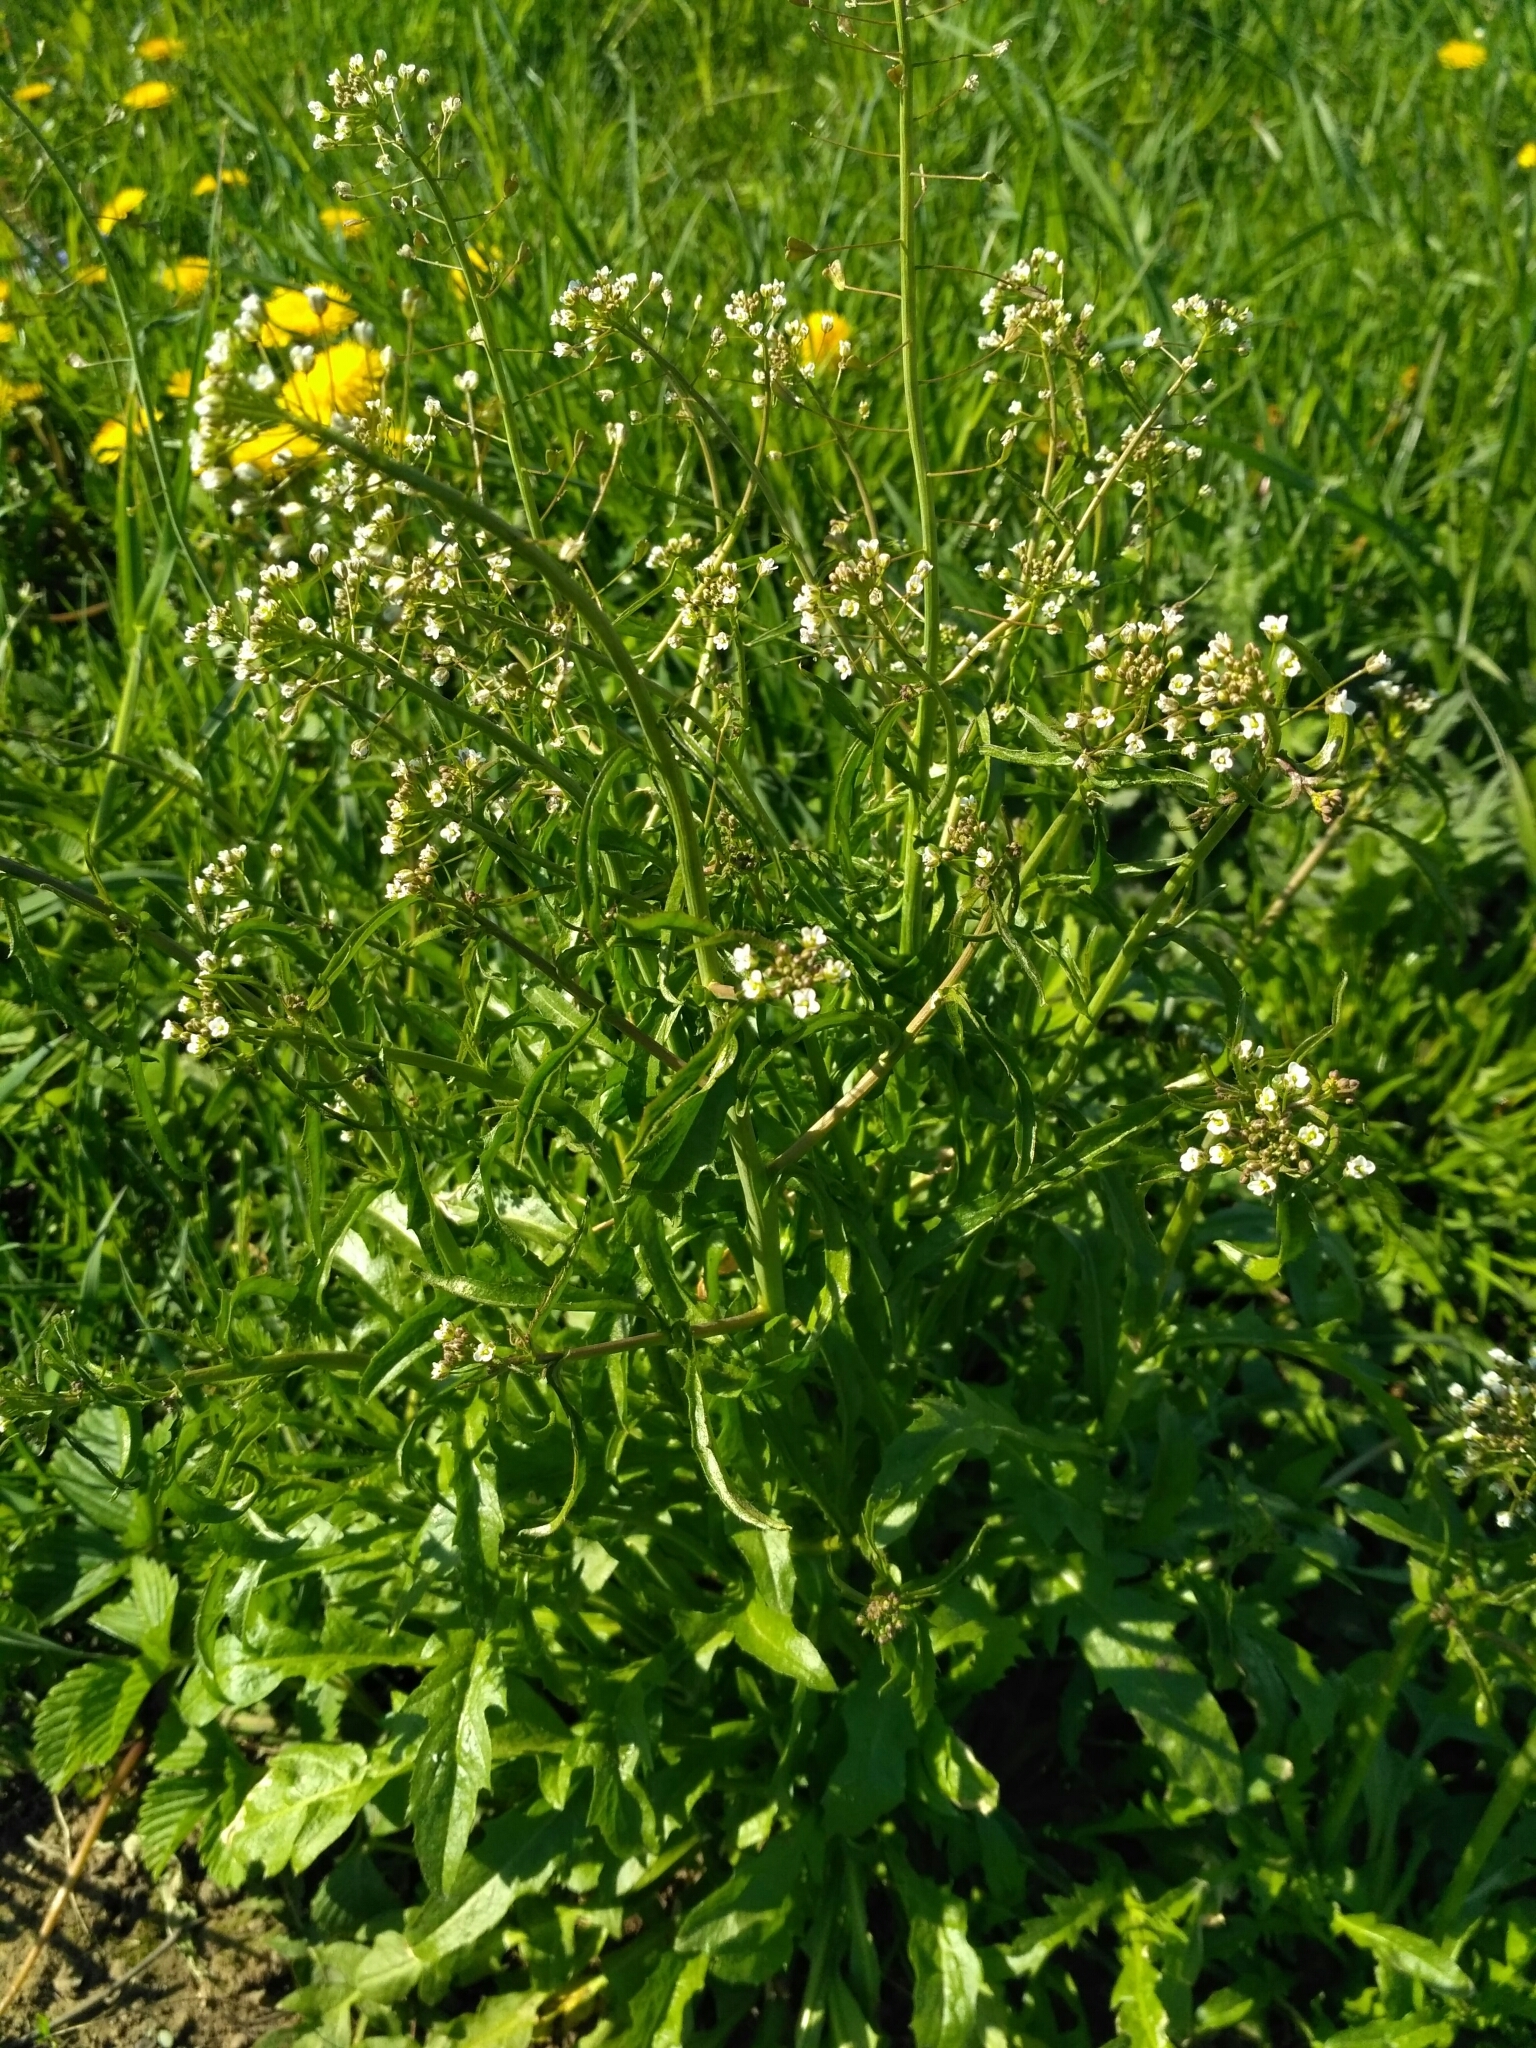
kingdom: Plantae
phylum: Tracheophyta
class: Magnoliopsida
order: Brassicales
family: Brassicaceae
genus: Capsella
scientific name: Capsella bursa-pastoris
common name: Shepherd's purse
